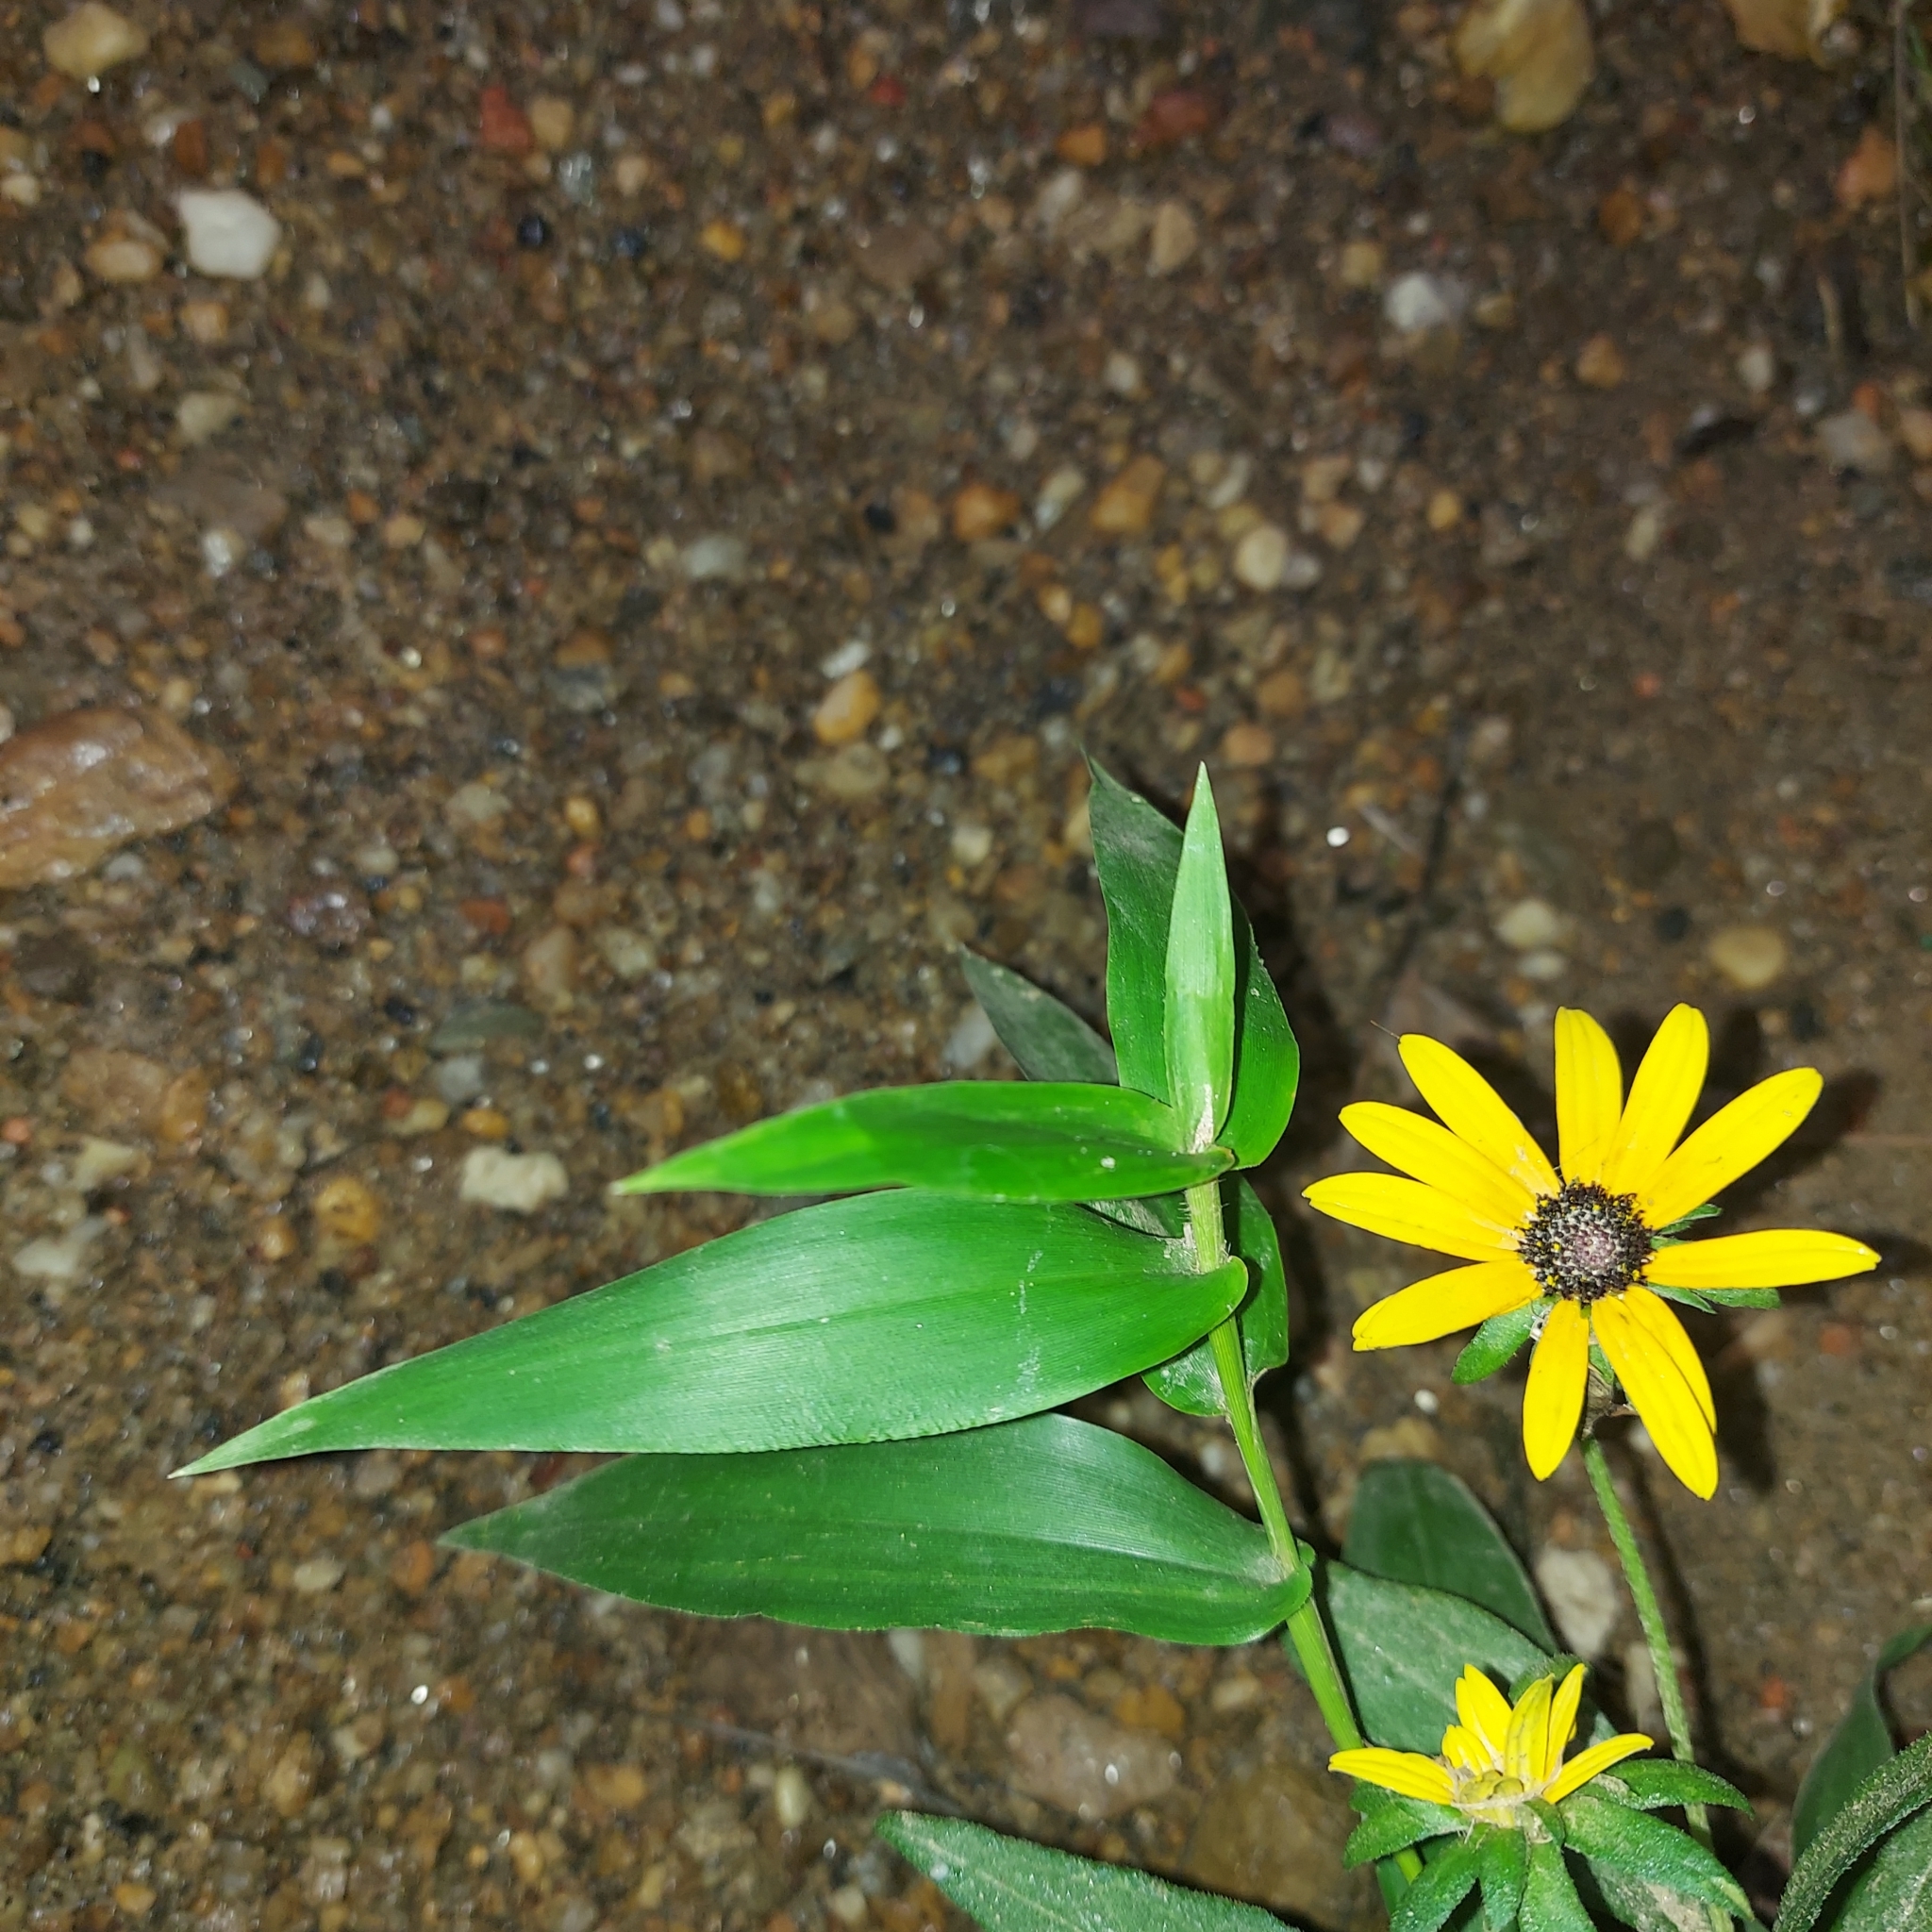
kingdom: Plantae
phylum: Tracheophyta
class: Magnoliopsida
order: Asterales
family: Asteraceae
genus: Rudbeckia
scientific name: Rudbeckia fulgida
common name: Perennial coneflower
